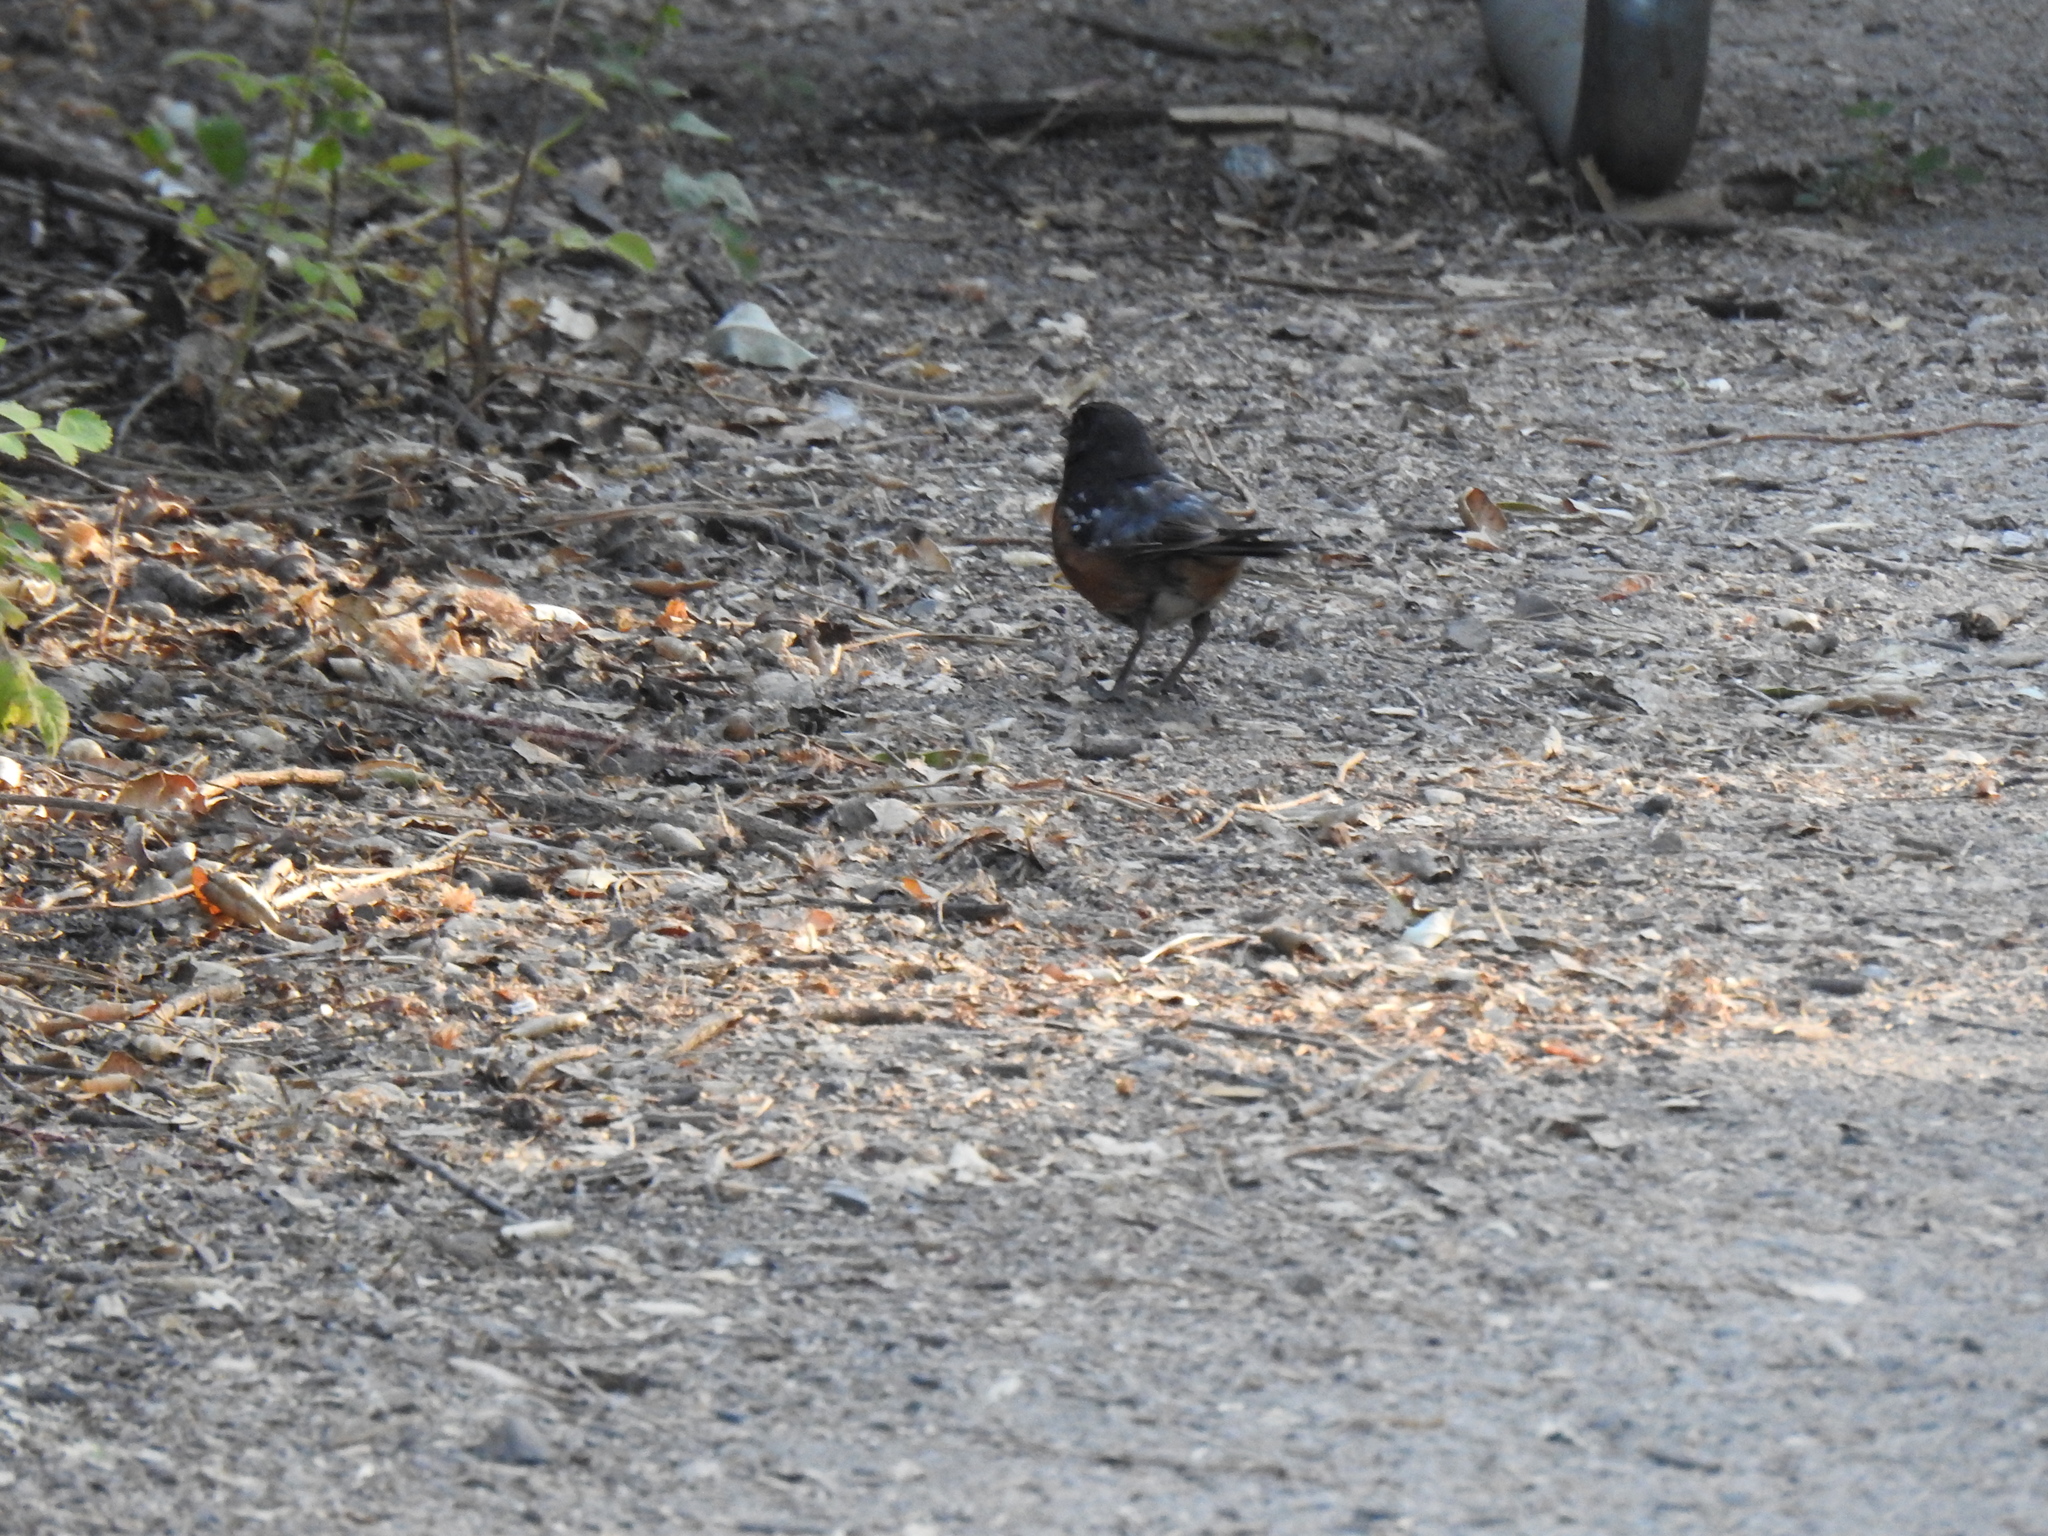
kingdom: Animalia
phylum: Chordata
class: Aves
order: Passeriformes
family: Passerellidae
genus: Pipilo
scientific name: Pipilo maculatus
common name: Spotted towhee
